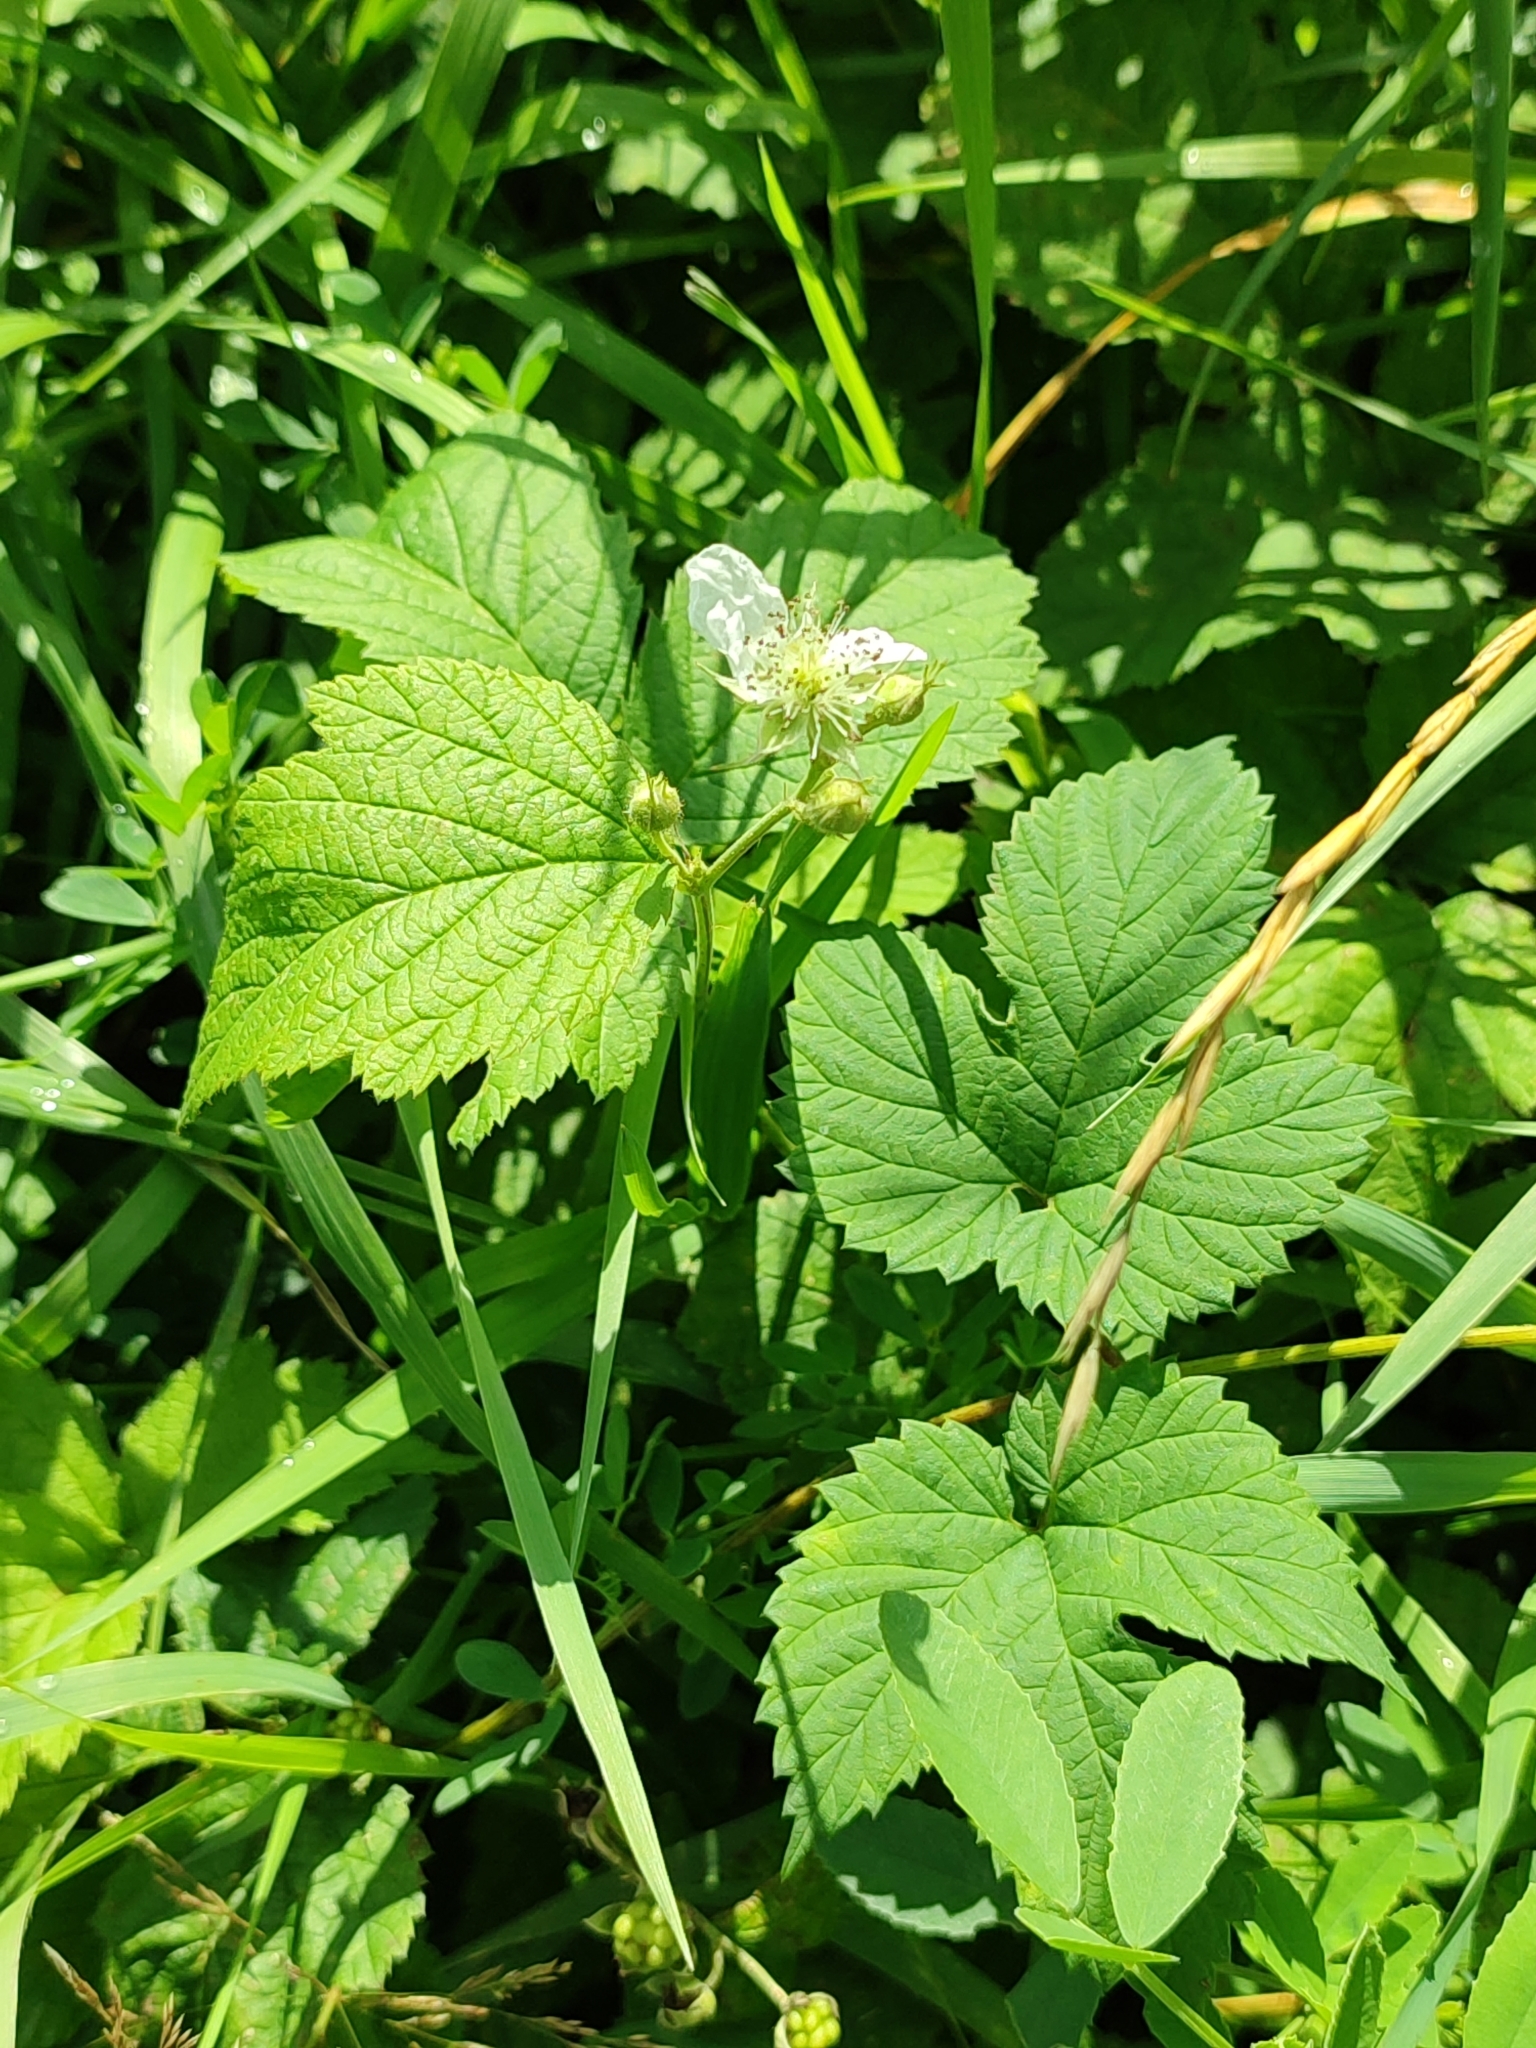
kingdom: Plantae
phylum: Tracheophyta
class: Magnoliopsida
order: Rosales
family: Rosaceae
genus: Rubus
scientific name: Rubus caesius
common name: Dewberry
